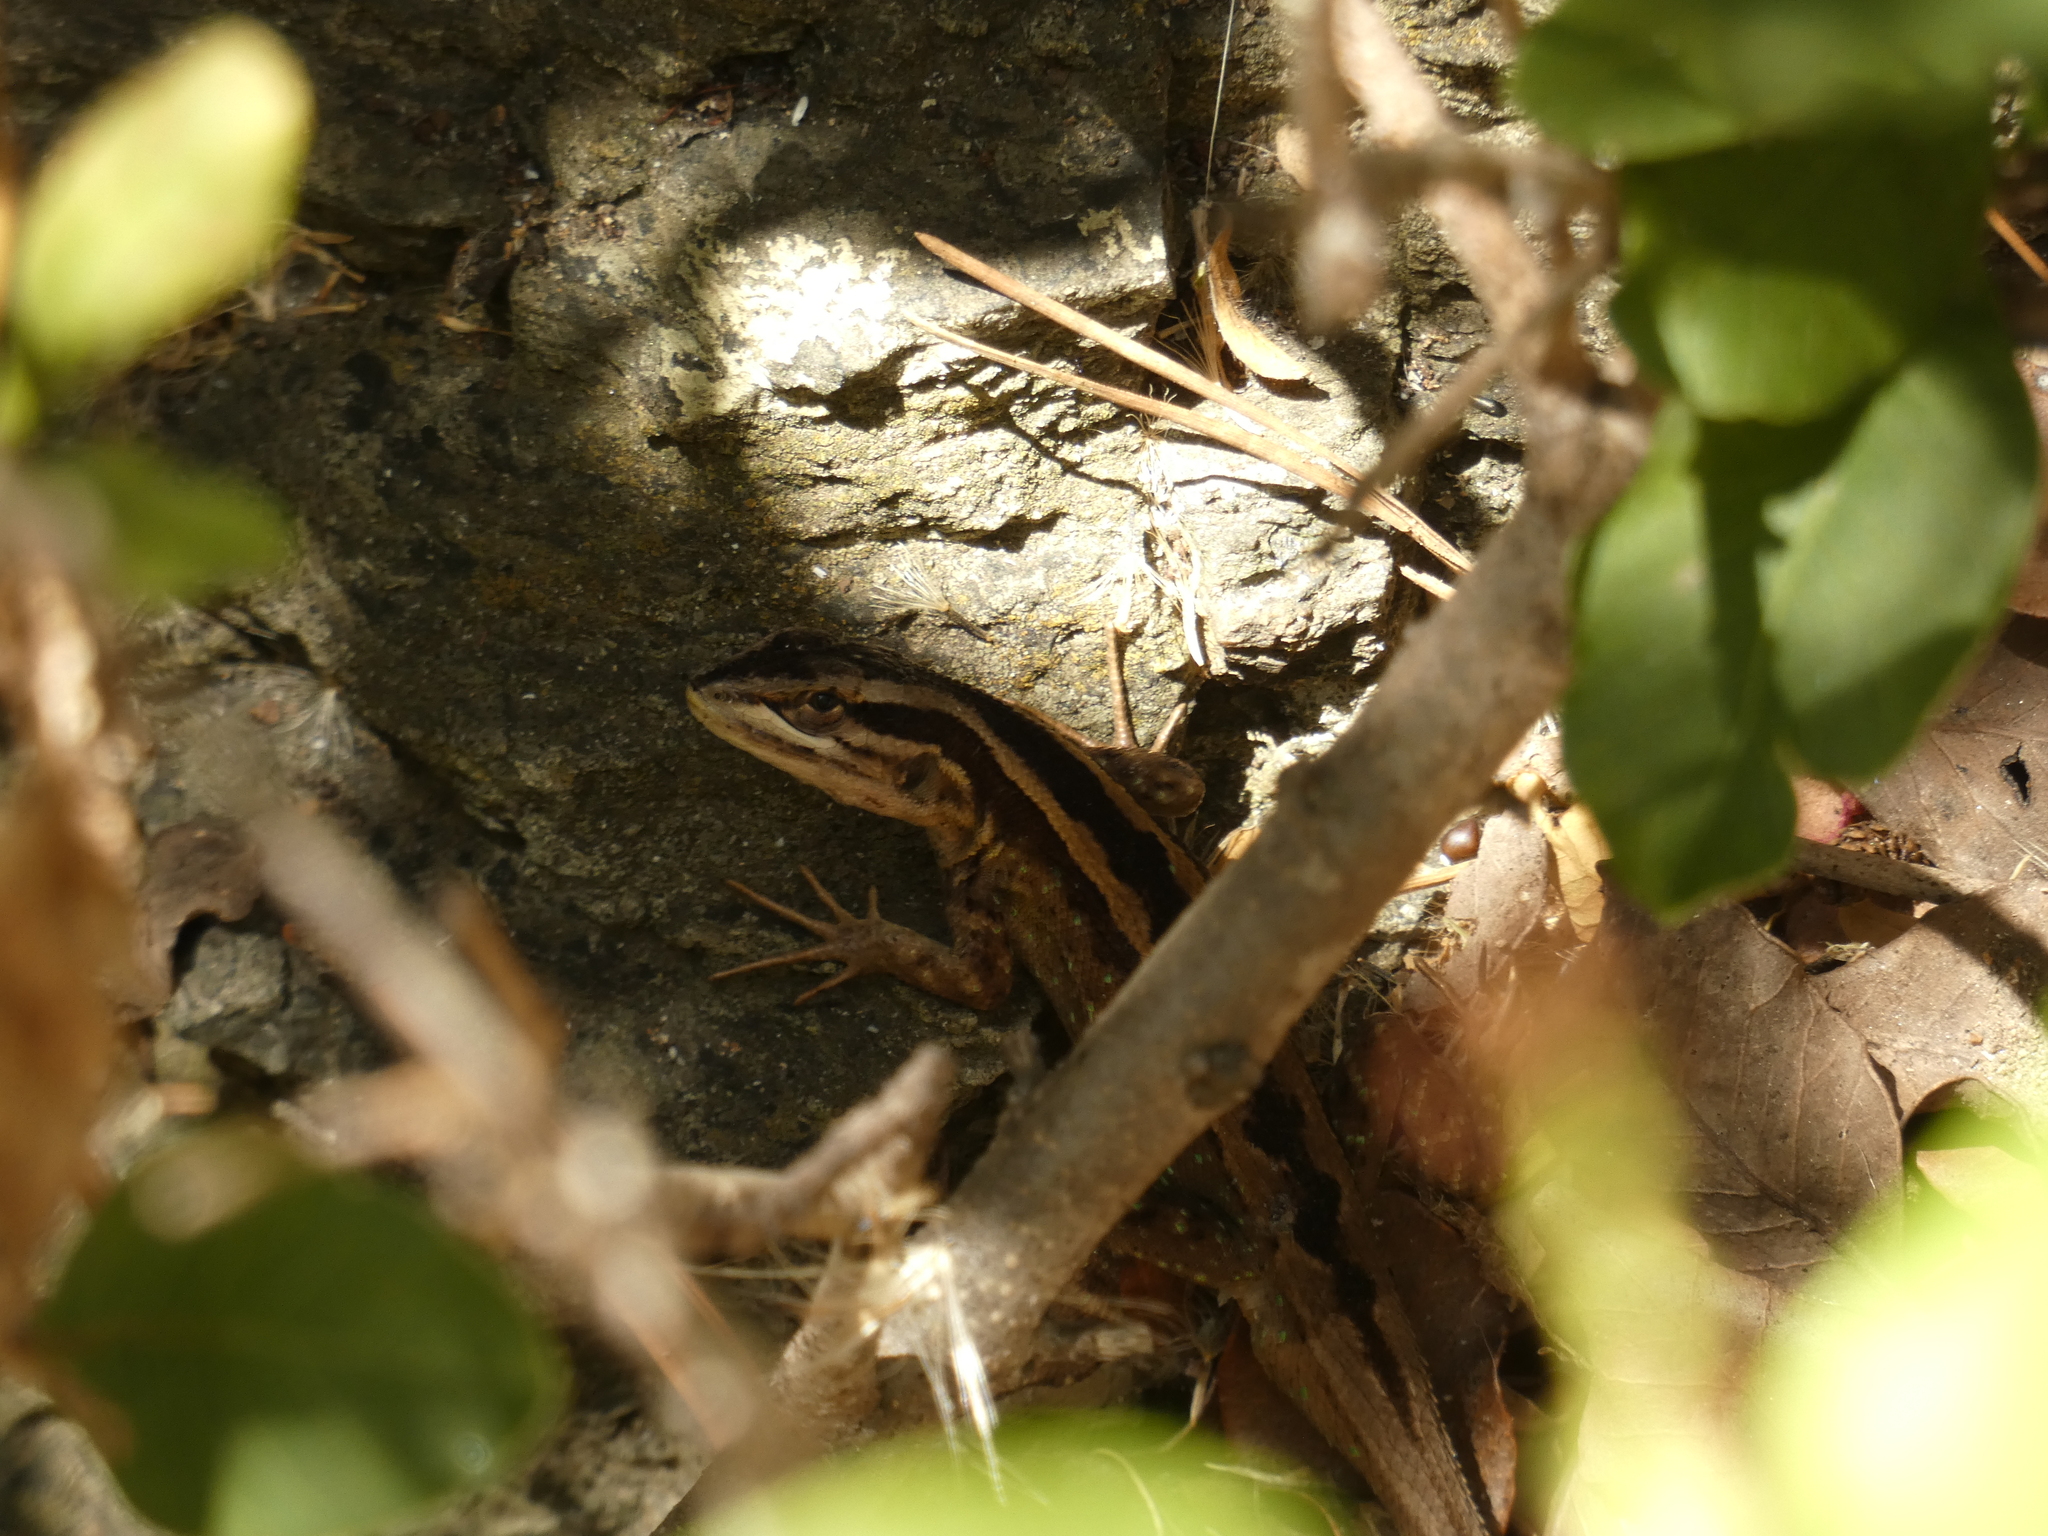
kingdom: Animalia
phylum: Chordata
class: Squamata
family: Liolaemidae
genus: Liolaemus
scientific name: Liolaemus schroederi
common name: Schroeder's tree iguana
